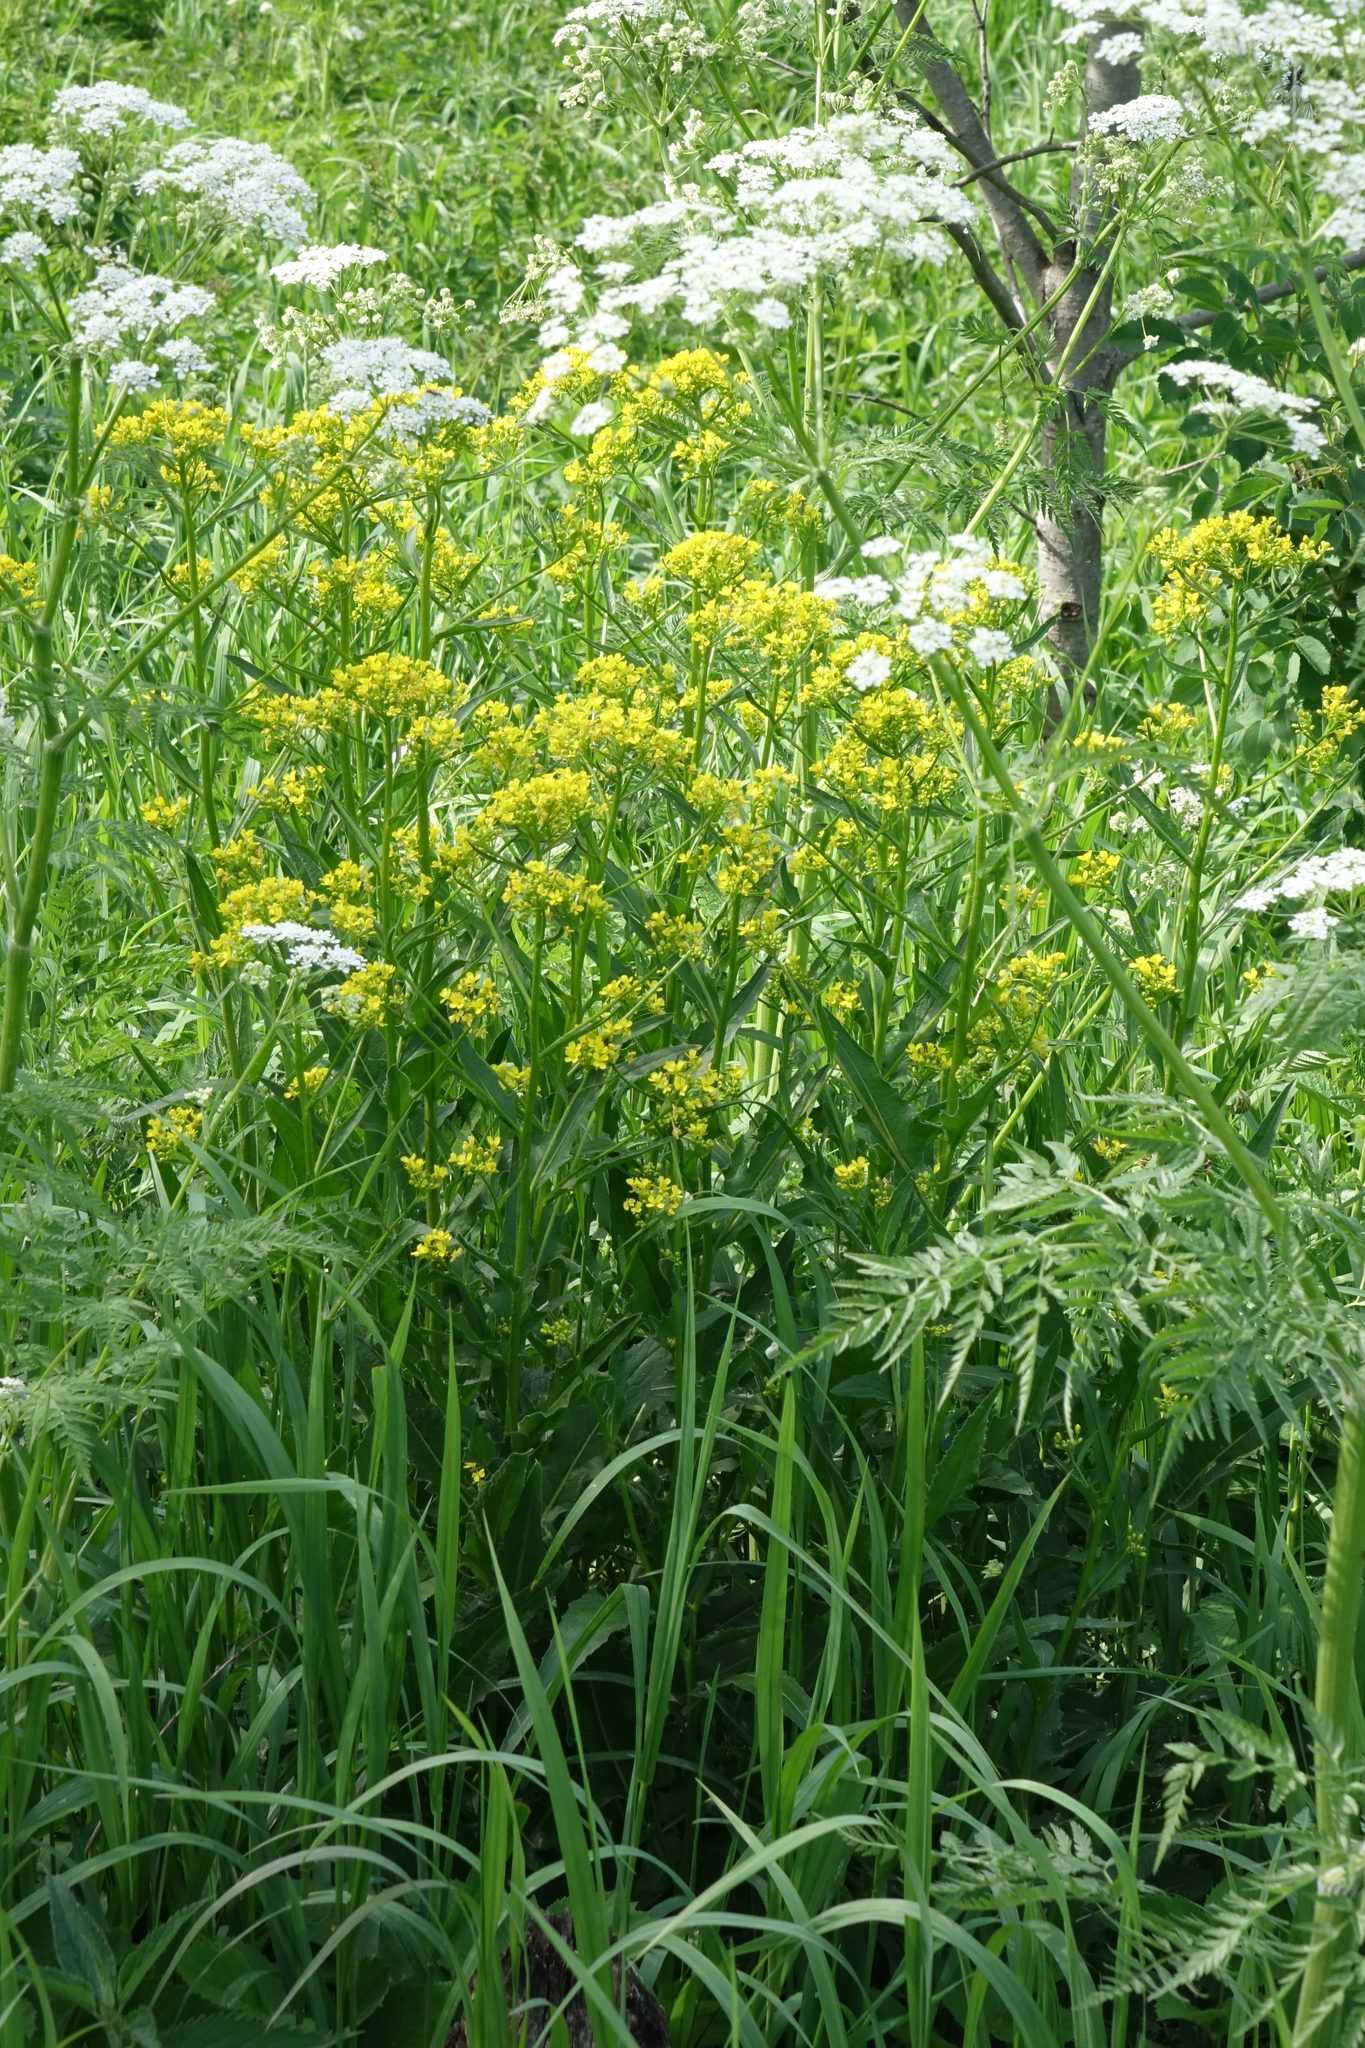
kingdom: Plantae
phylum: Tracheophyta
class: Magnoliopsida
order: Brassicales
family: Brassicaceae
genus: Bunias
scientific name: Bunias orientalis
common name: Warty-cabbage
